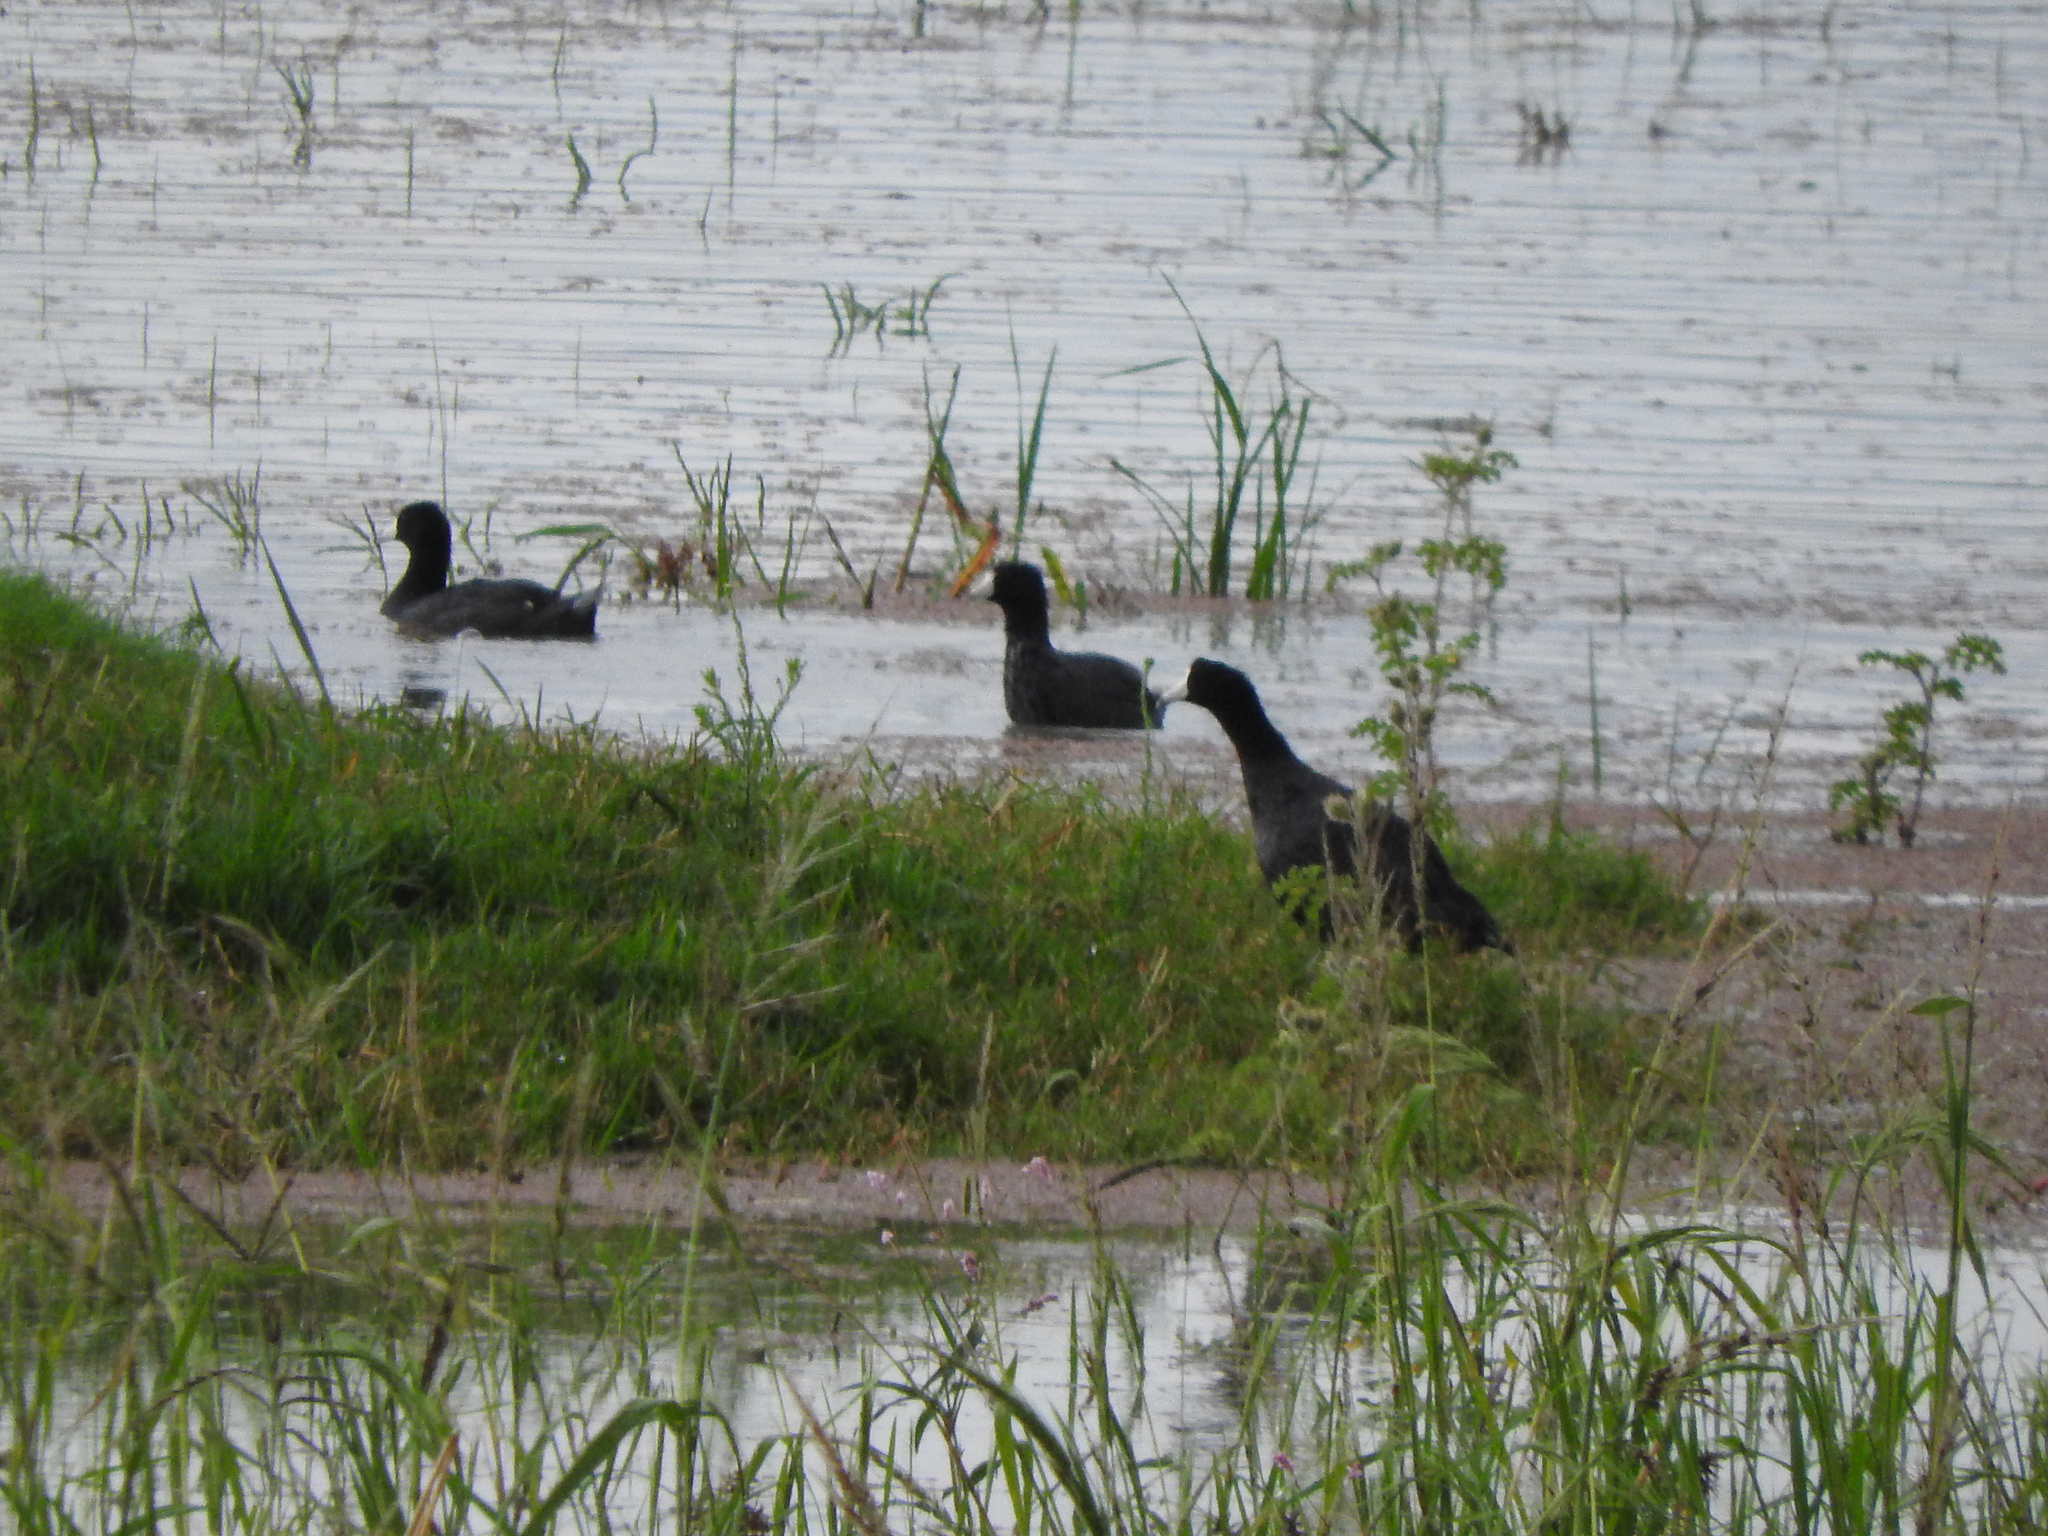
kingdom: Animalia
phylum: Chordata
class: Aves
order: Gruiformes
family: Rallidae
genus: Fulica
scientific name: Fulica americana
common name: American coot
